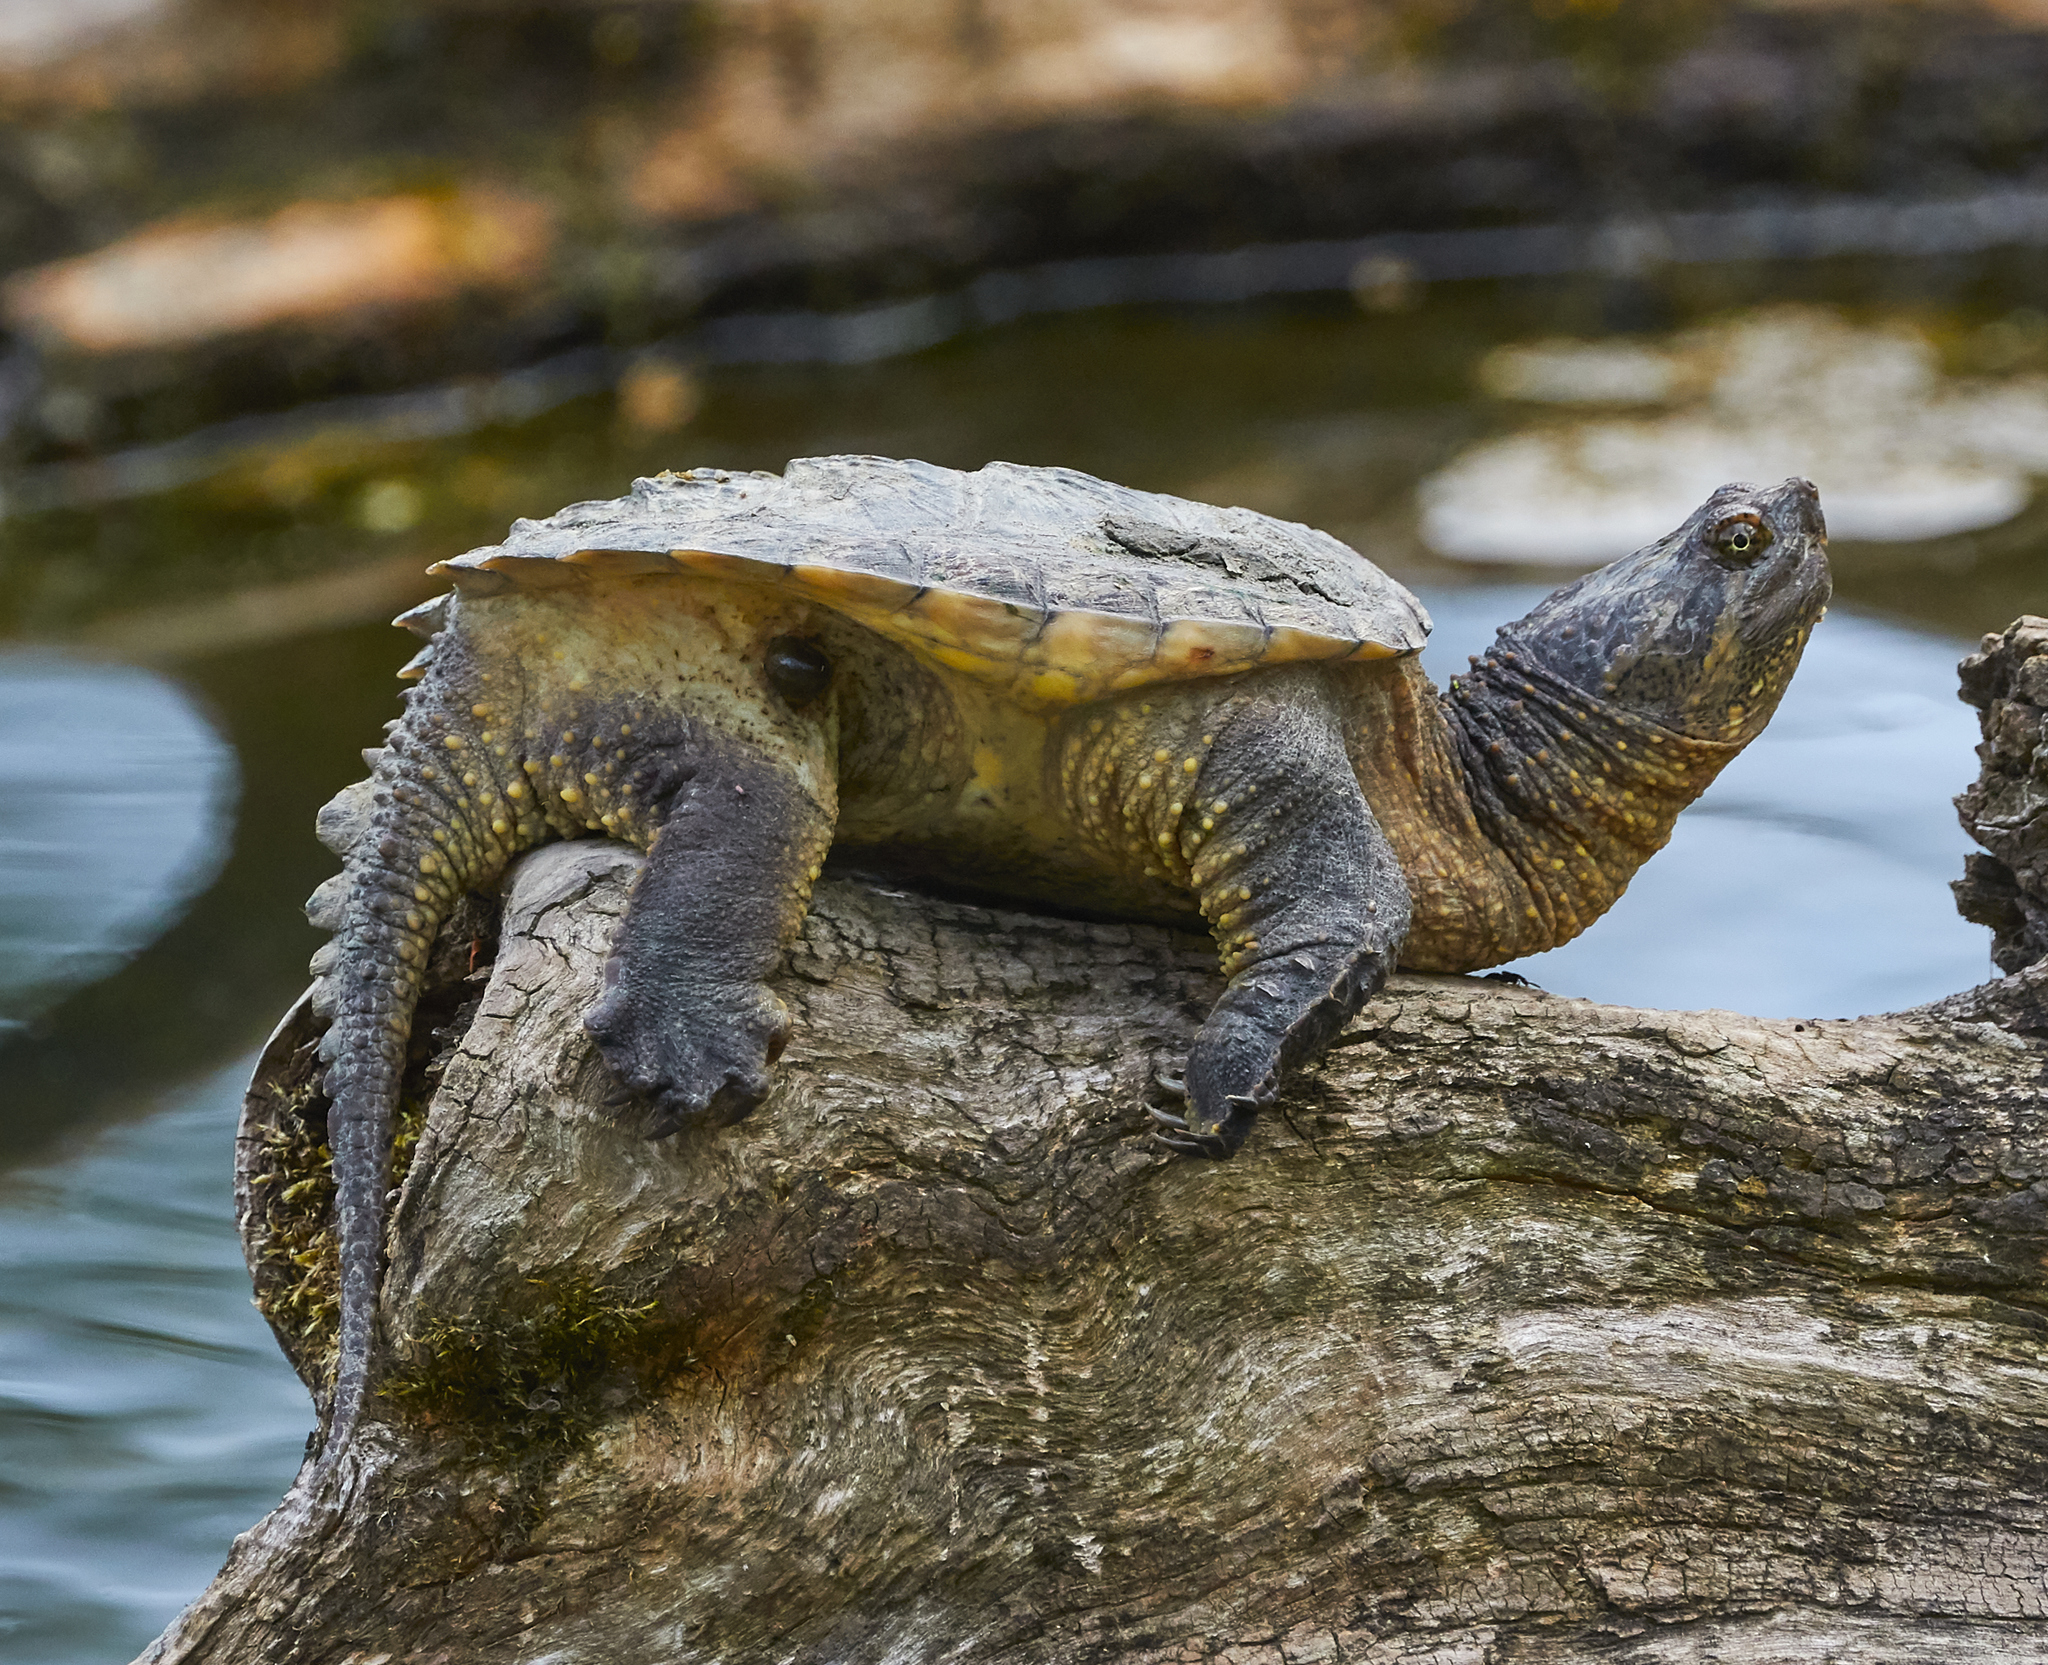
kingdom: Animalia
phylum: Chordata
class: Testudines
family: Chelydridae
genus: Chelydra
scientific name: Chelydra serpentina
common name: Common snapping turtle
